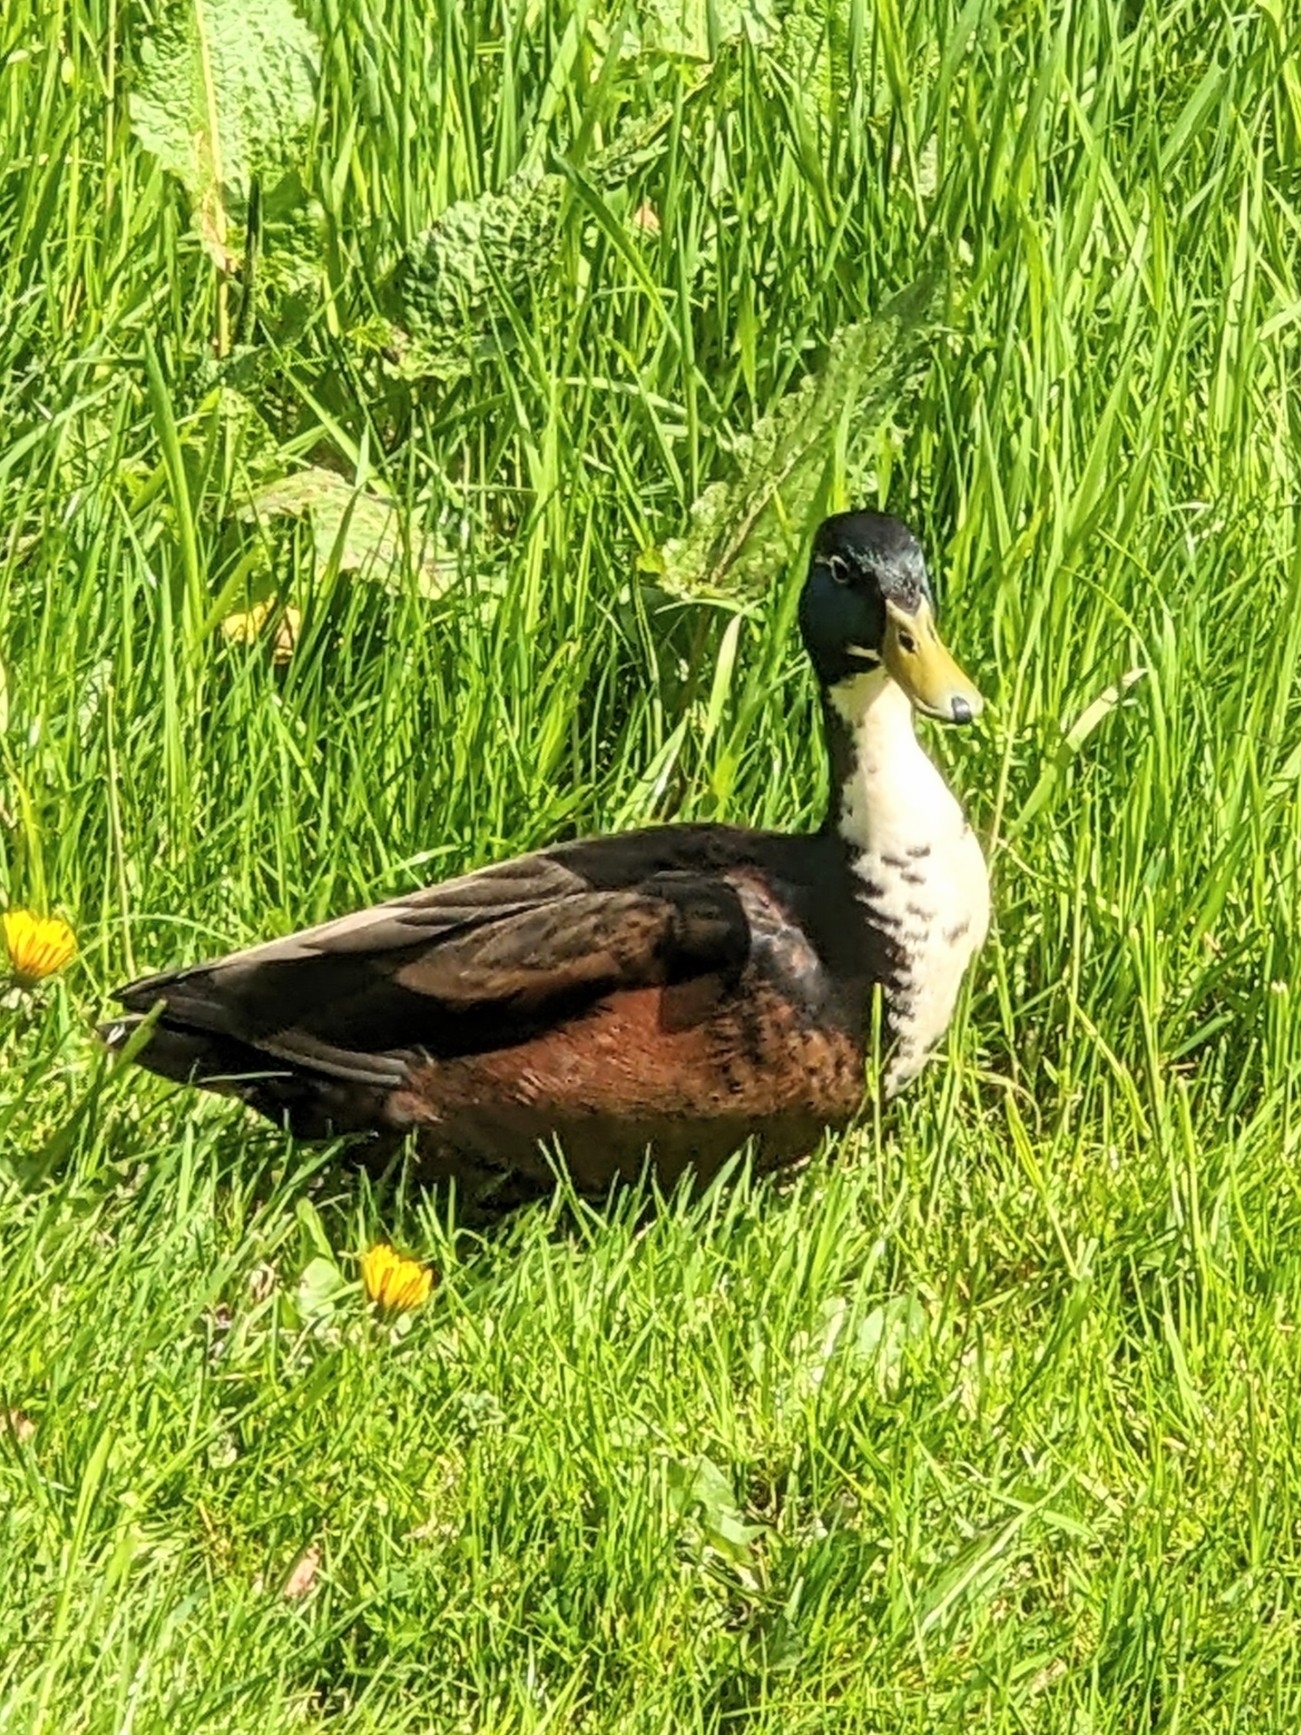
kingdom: Animalia
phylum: Chordata
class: Aves
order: Anseriformes
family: Anatidae
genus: Anas
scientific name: Anas platyrhynchos
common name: Mallard
